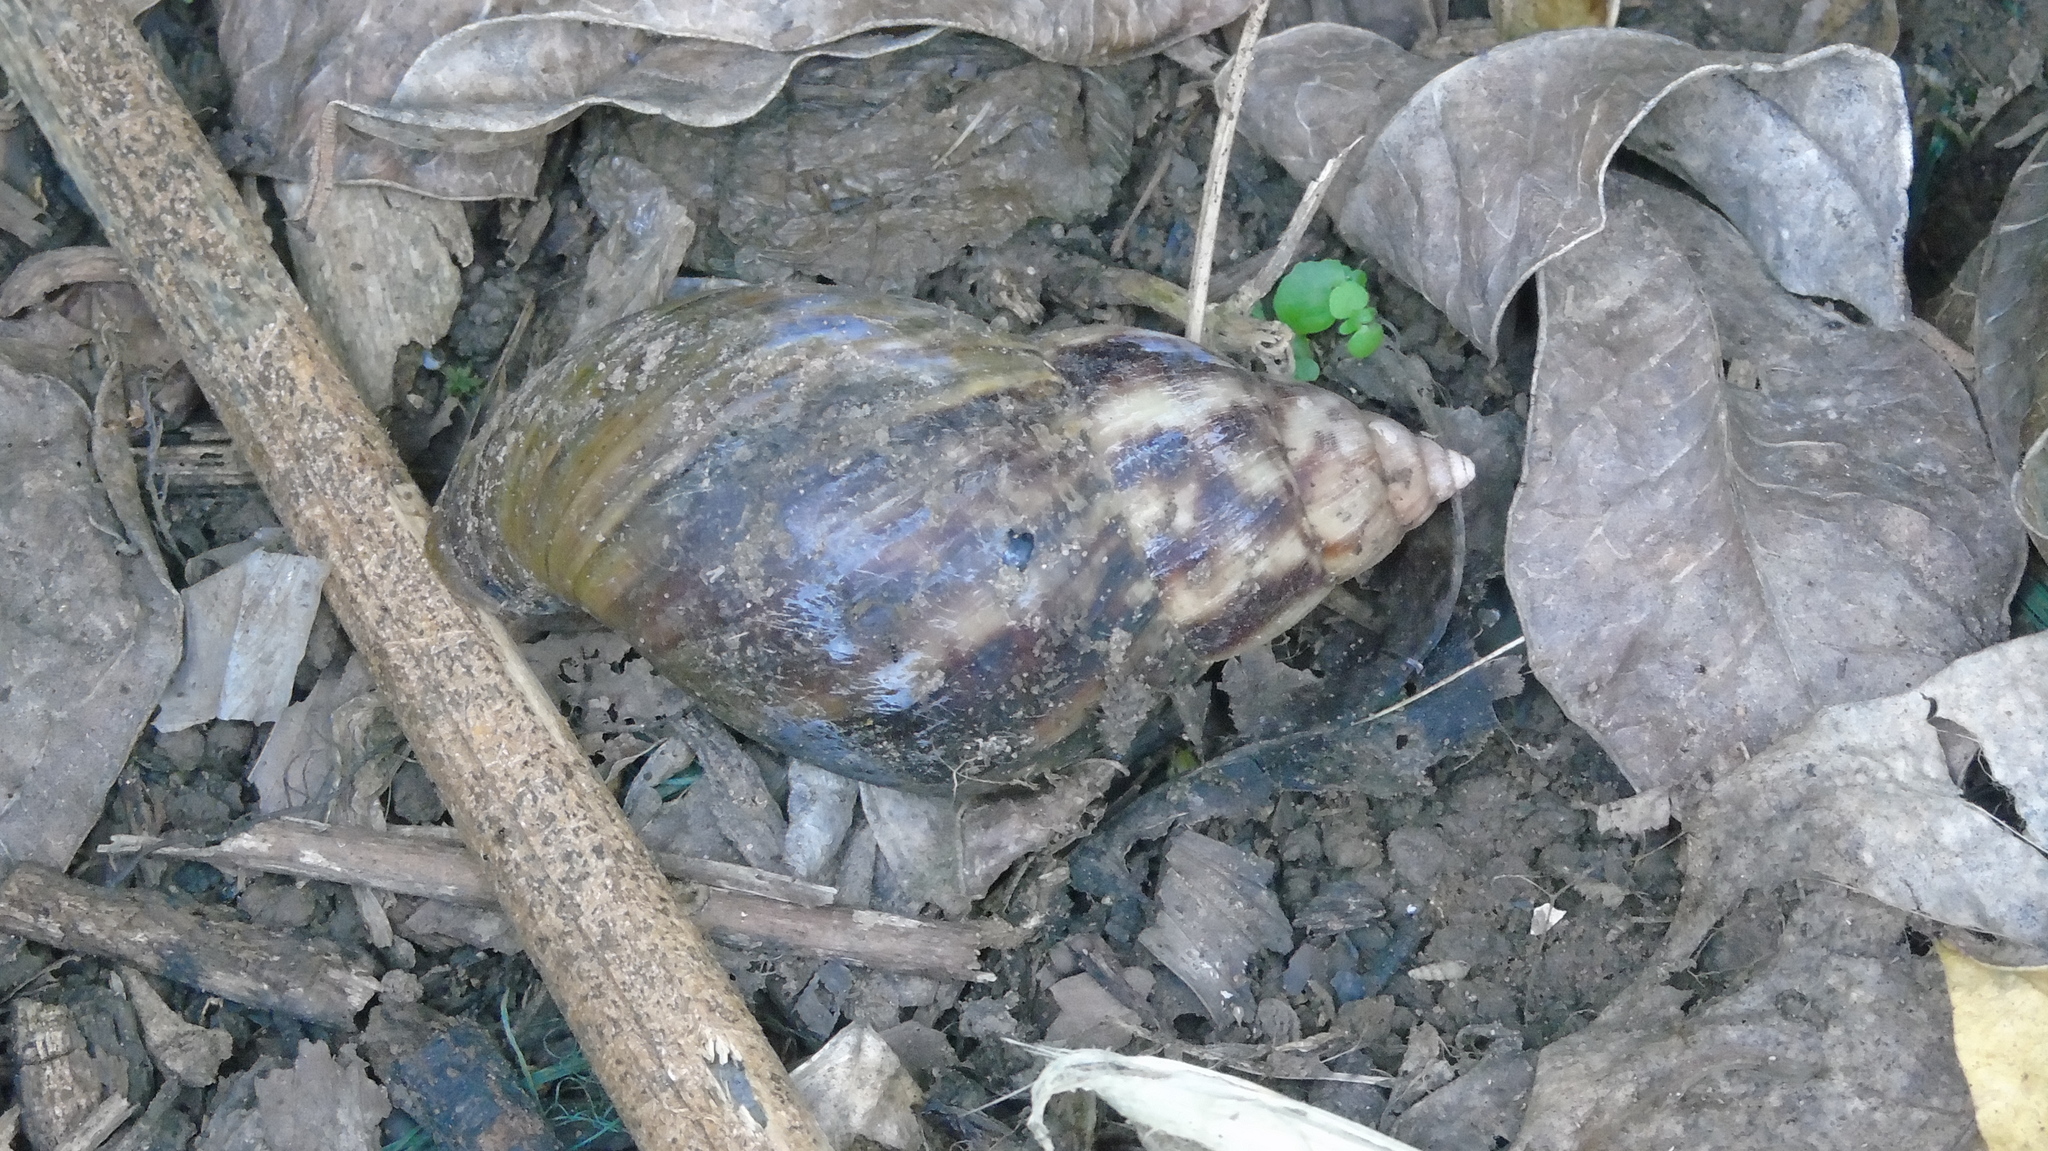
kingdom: Animalia
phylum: Mollusca
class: Gastropoda
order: Stylommatophora
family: Achatinidae
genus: Lissachatina
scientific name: Lissachatina fulica
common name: Giant african snail
